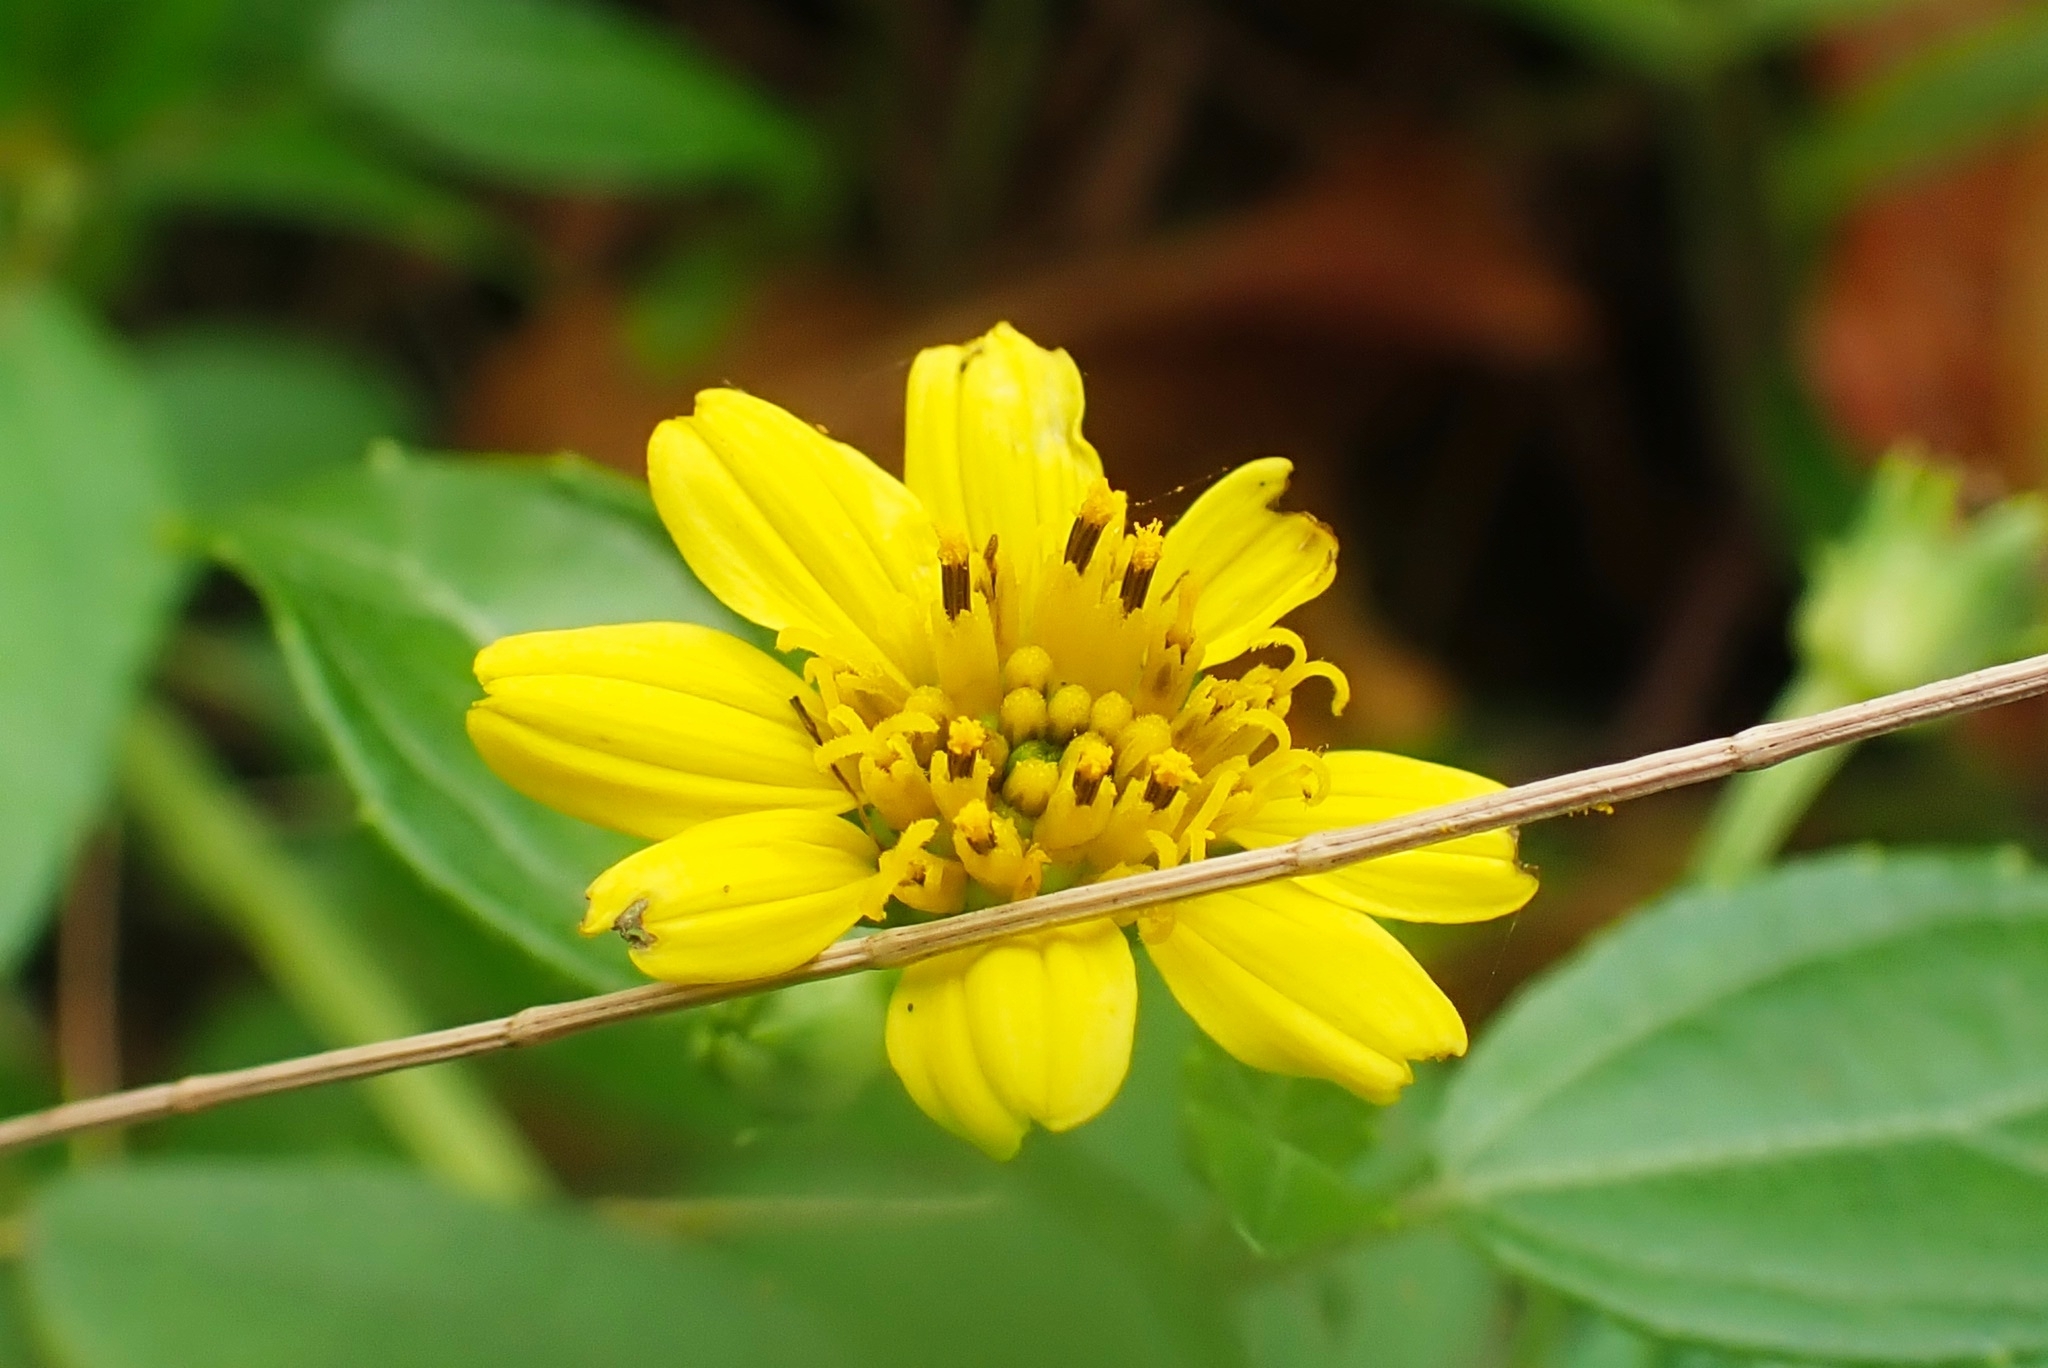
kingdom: Plantae
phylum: Tracheophyta
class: Magnoliopsida
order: Asterales
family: Asteraceae
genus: Wollastonia
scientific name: Wollastonia biflora
